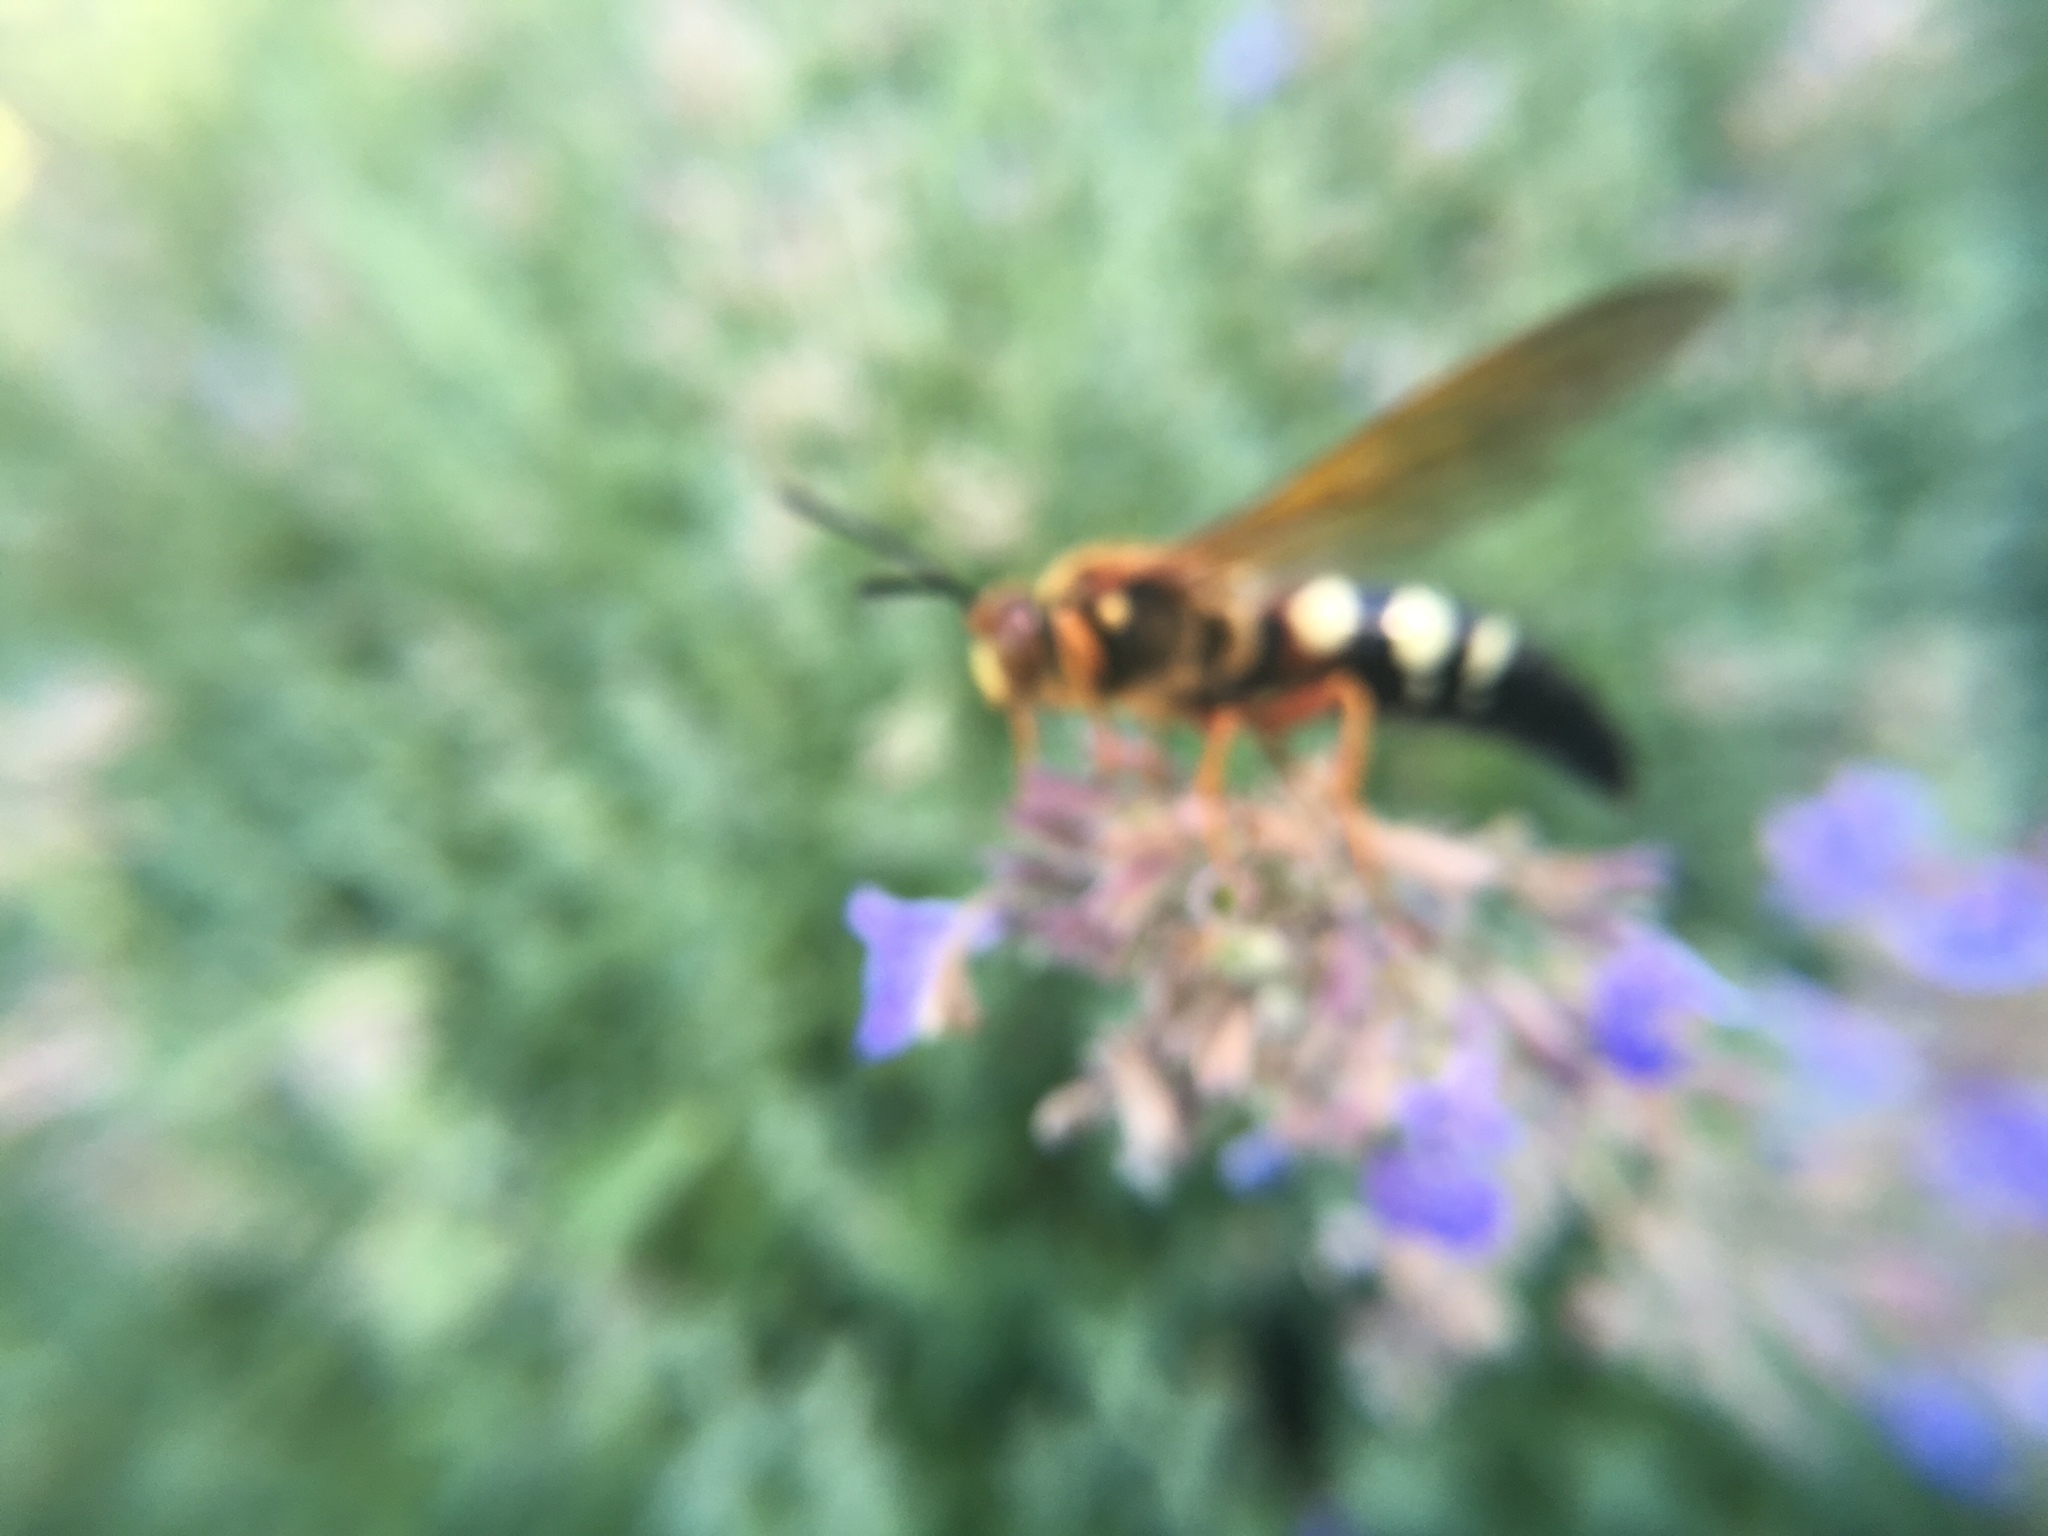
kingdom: Animalia
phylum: Arthropoda
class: Insecta
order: Hymenoptera
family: Crabronidae
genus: Sphecius
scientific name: Sphecius speciosus
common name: Cicada killer
